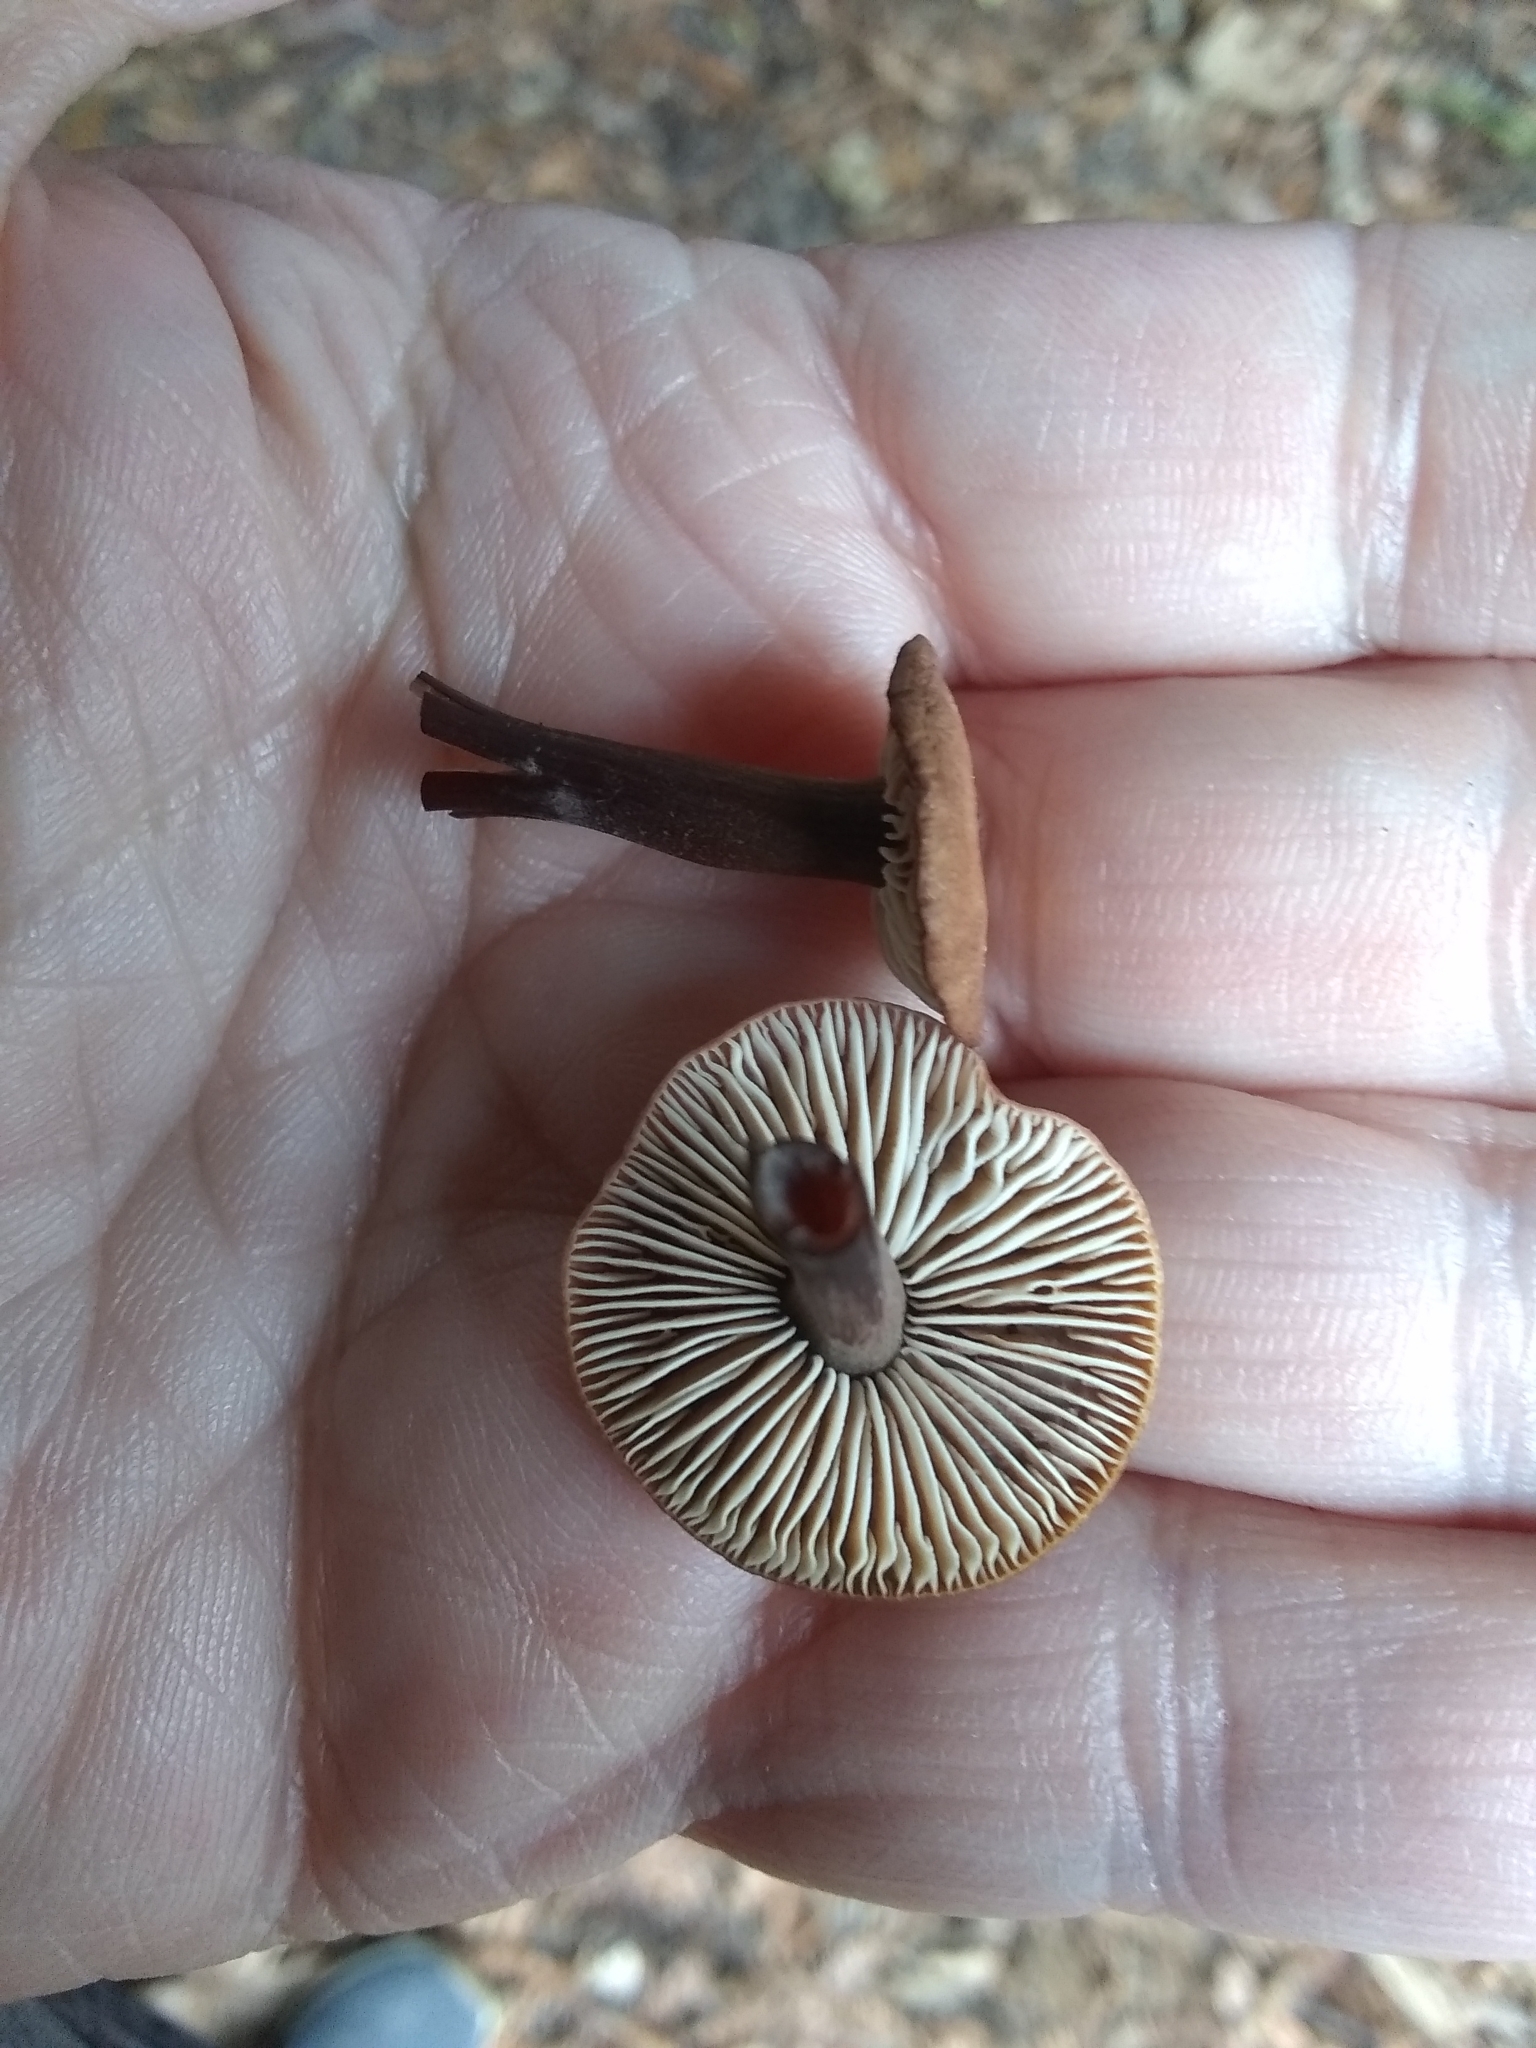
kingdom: Fungi
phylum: Basidiomycota
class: Agaricomycetes
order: Agaricales
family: Omphalotaceae
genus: Gymnopus
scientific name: Gymnopus brassicolens
